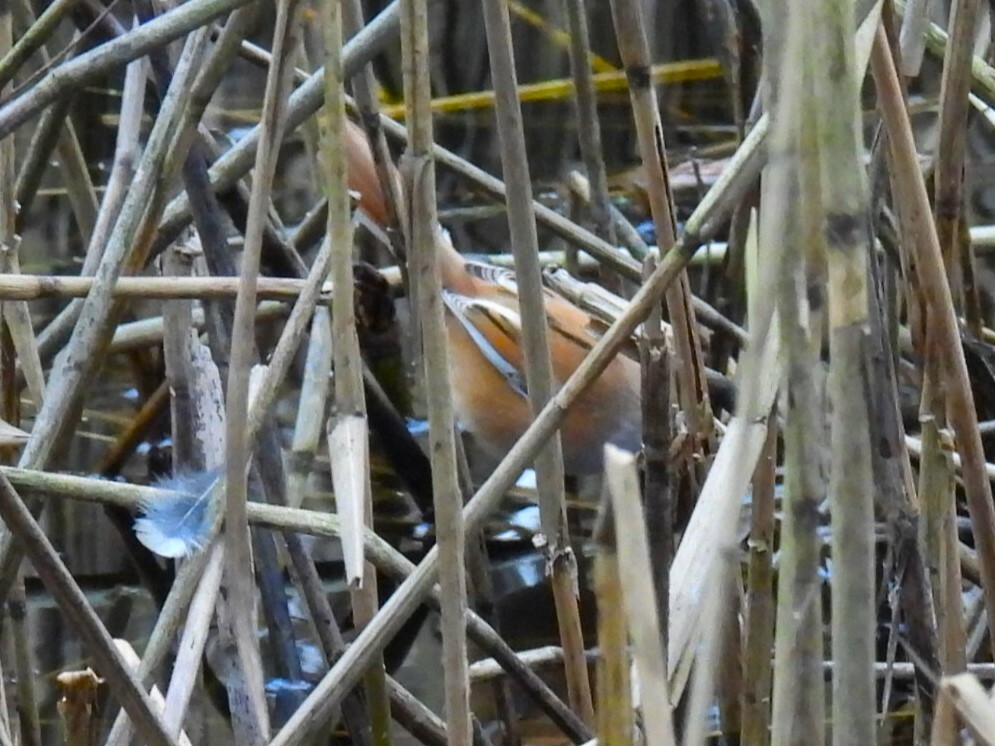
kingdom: Animalia
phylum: Chordata
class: Aves
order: Passeriformes
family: Panuridae
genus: Panurus
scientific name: Panurus biarmicus
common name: Bearded reedling
